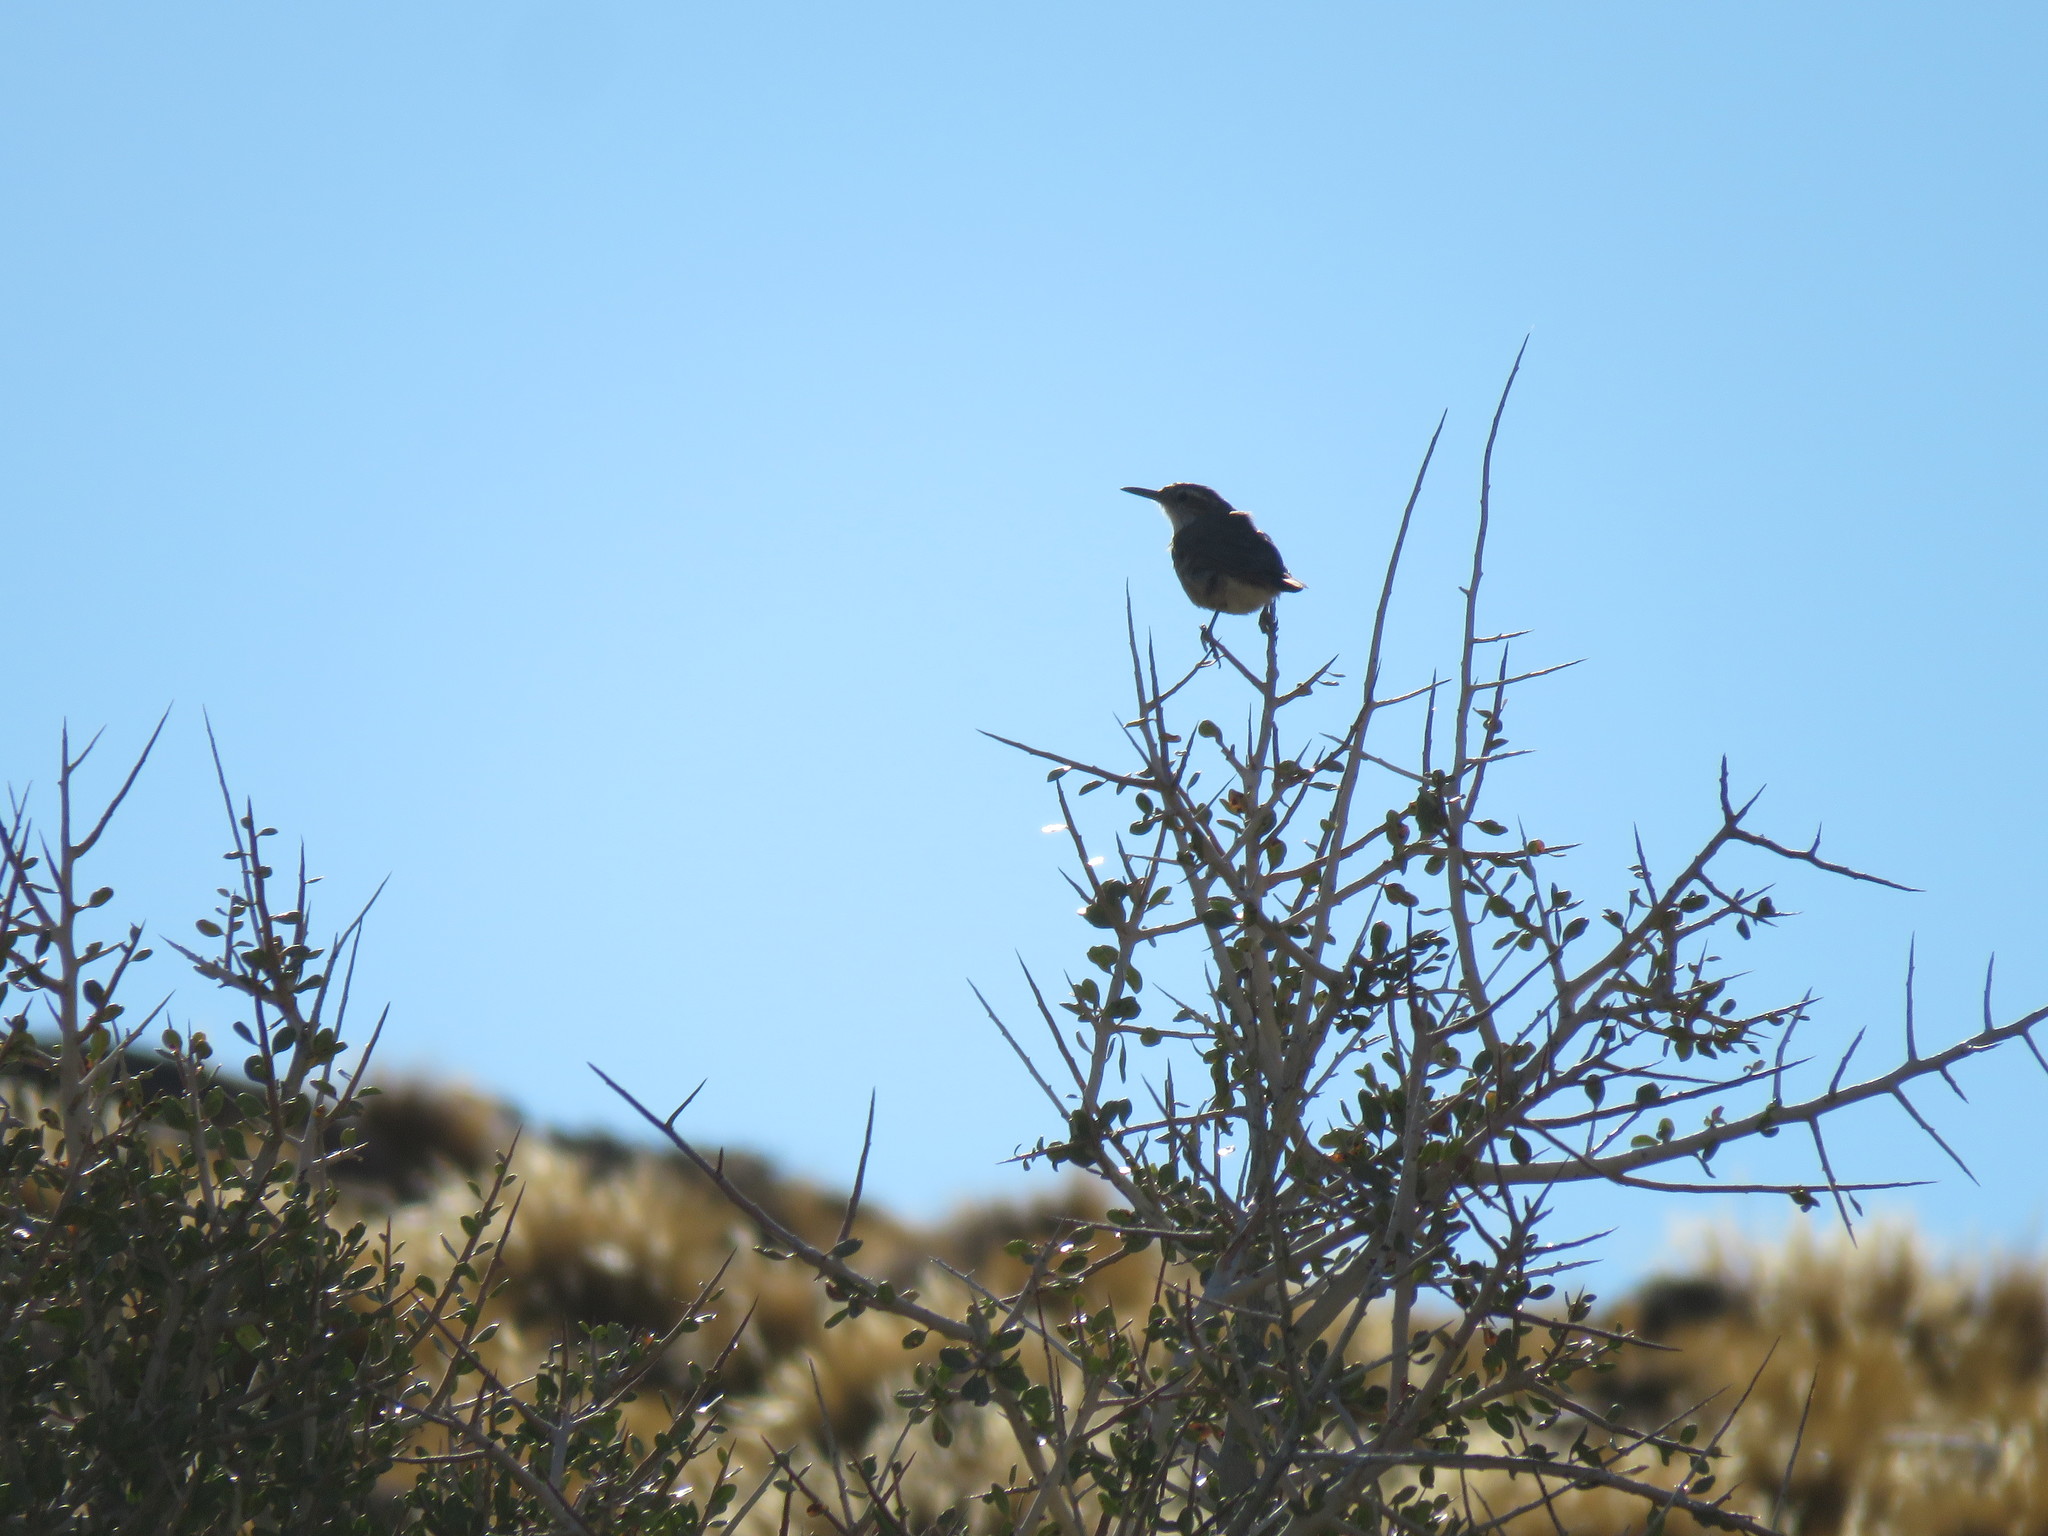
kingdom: Animalia
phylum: Chordata
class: Aves
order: Passeriformes
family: Furnariidae
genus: Eremobius
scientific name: Eremobius phoenicurus
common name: Band-tailed eremobius
